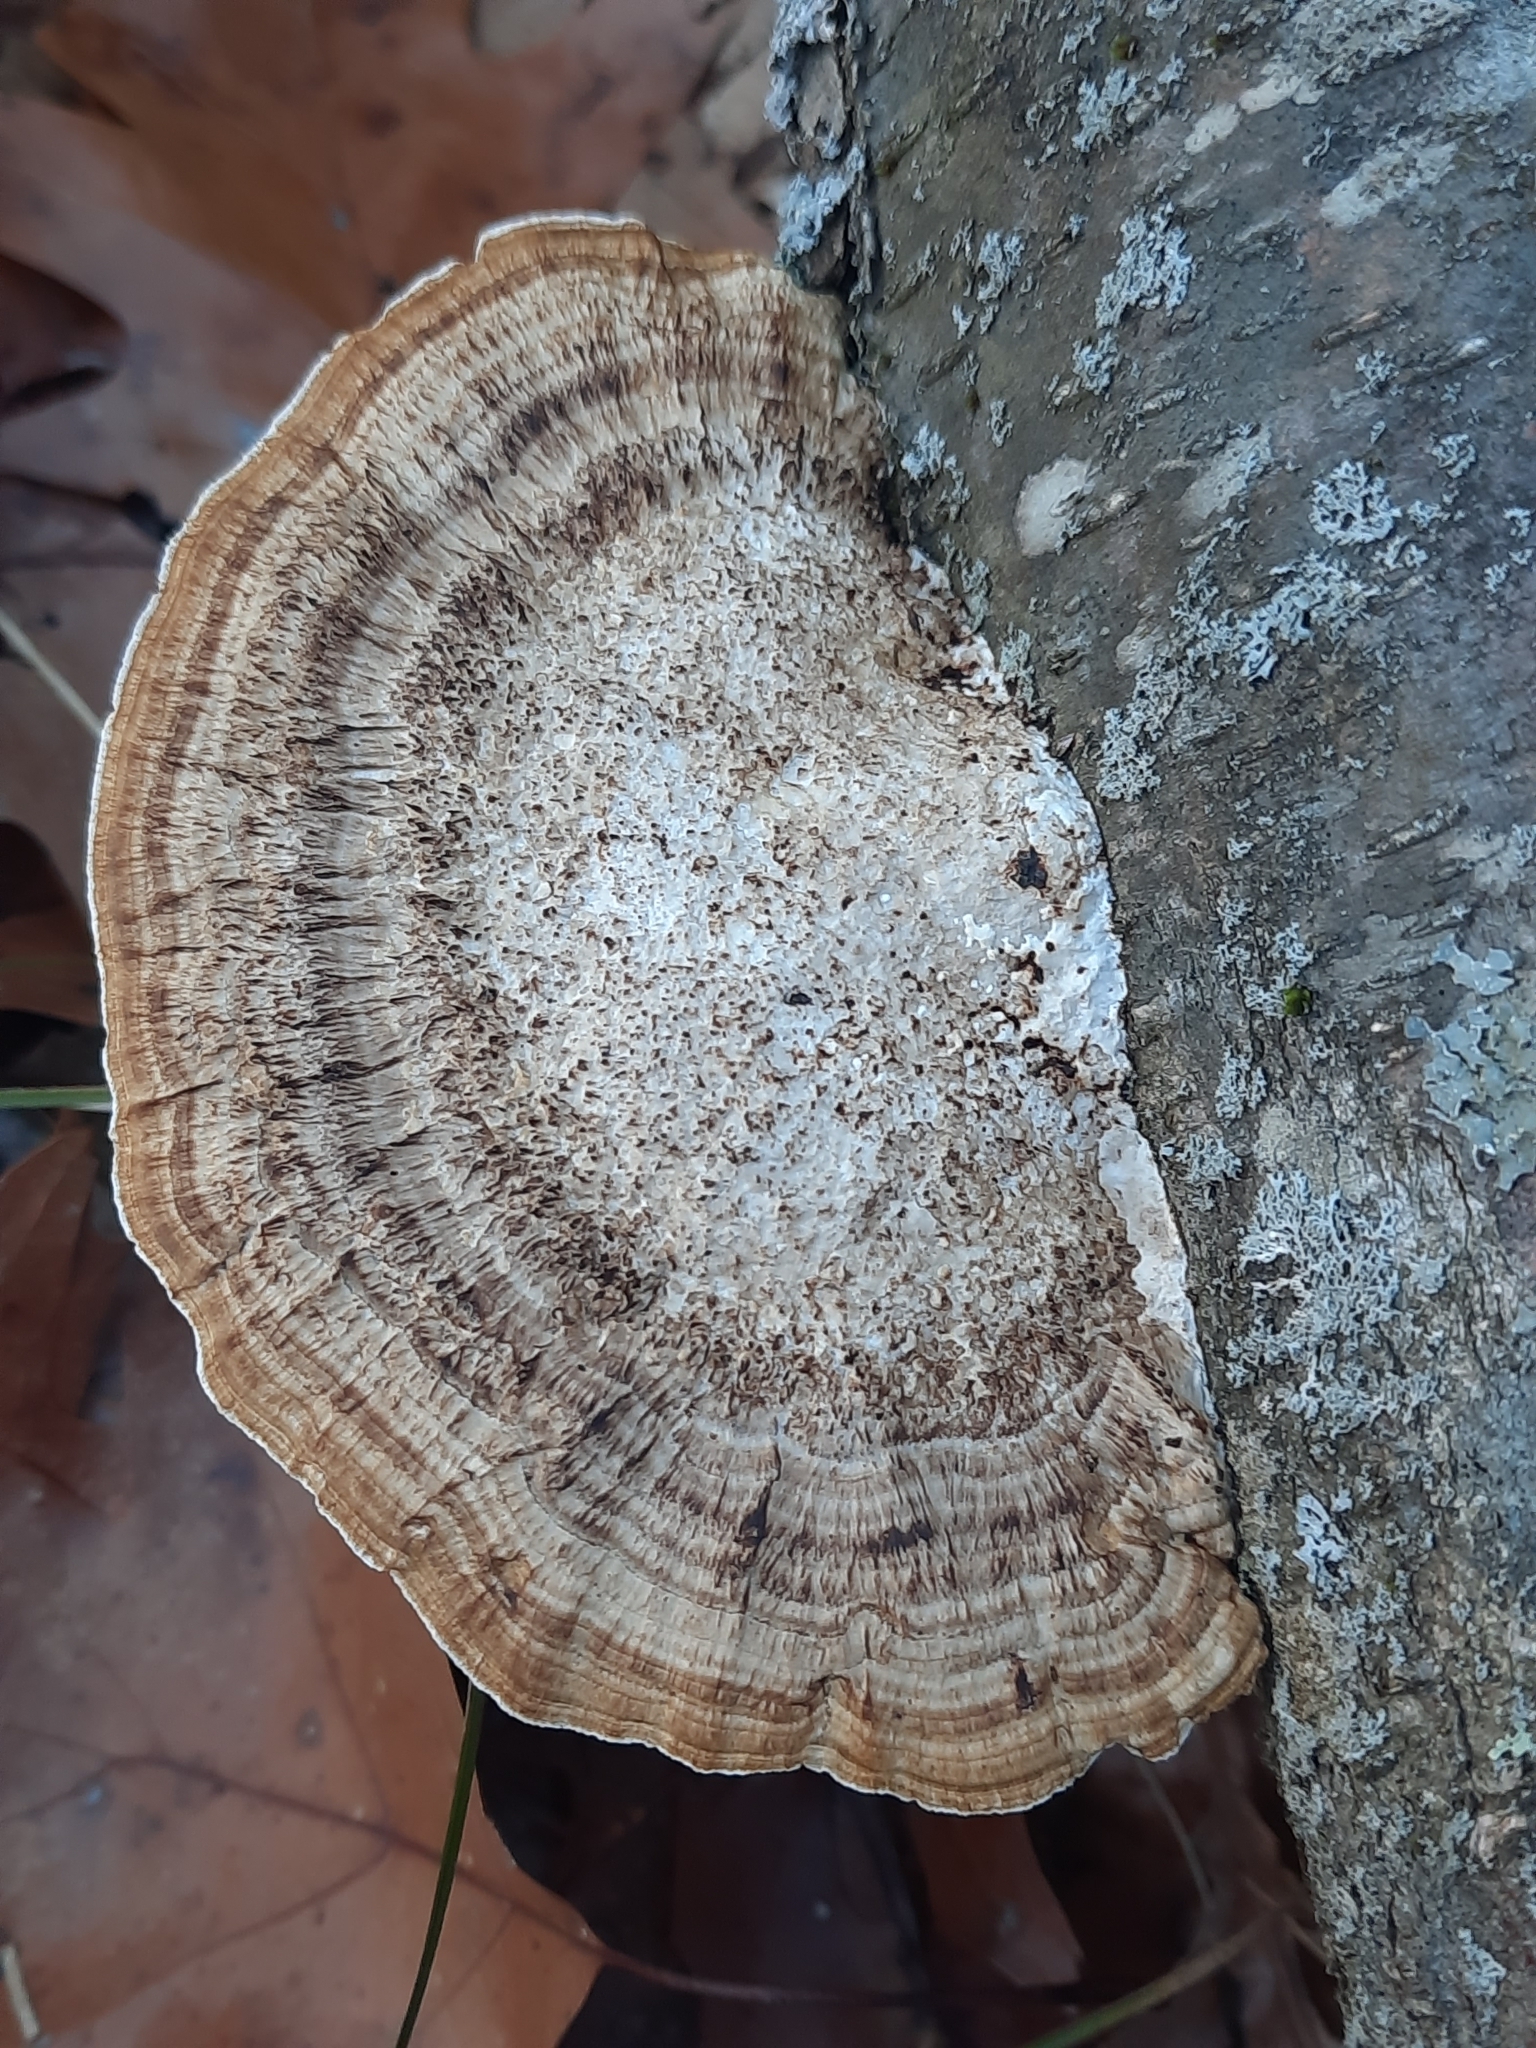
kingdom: Fungi
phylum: Basidiomycota
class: Agaricomycetes
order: Polyporales
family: Polyporaceae
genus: Daedaleopsis
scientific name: Daedaleopsis confragosa
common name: Blushing bracket
